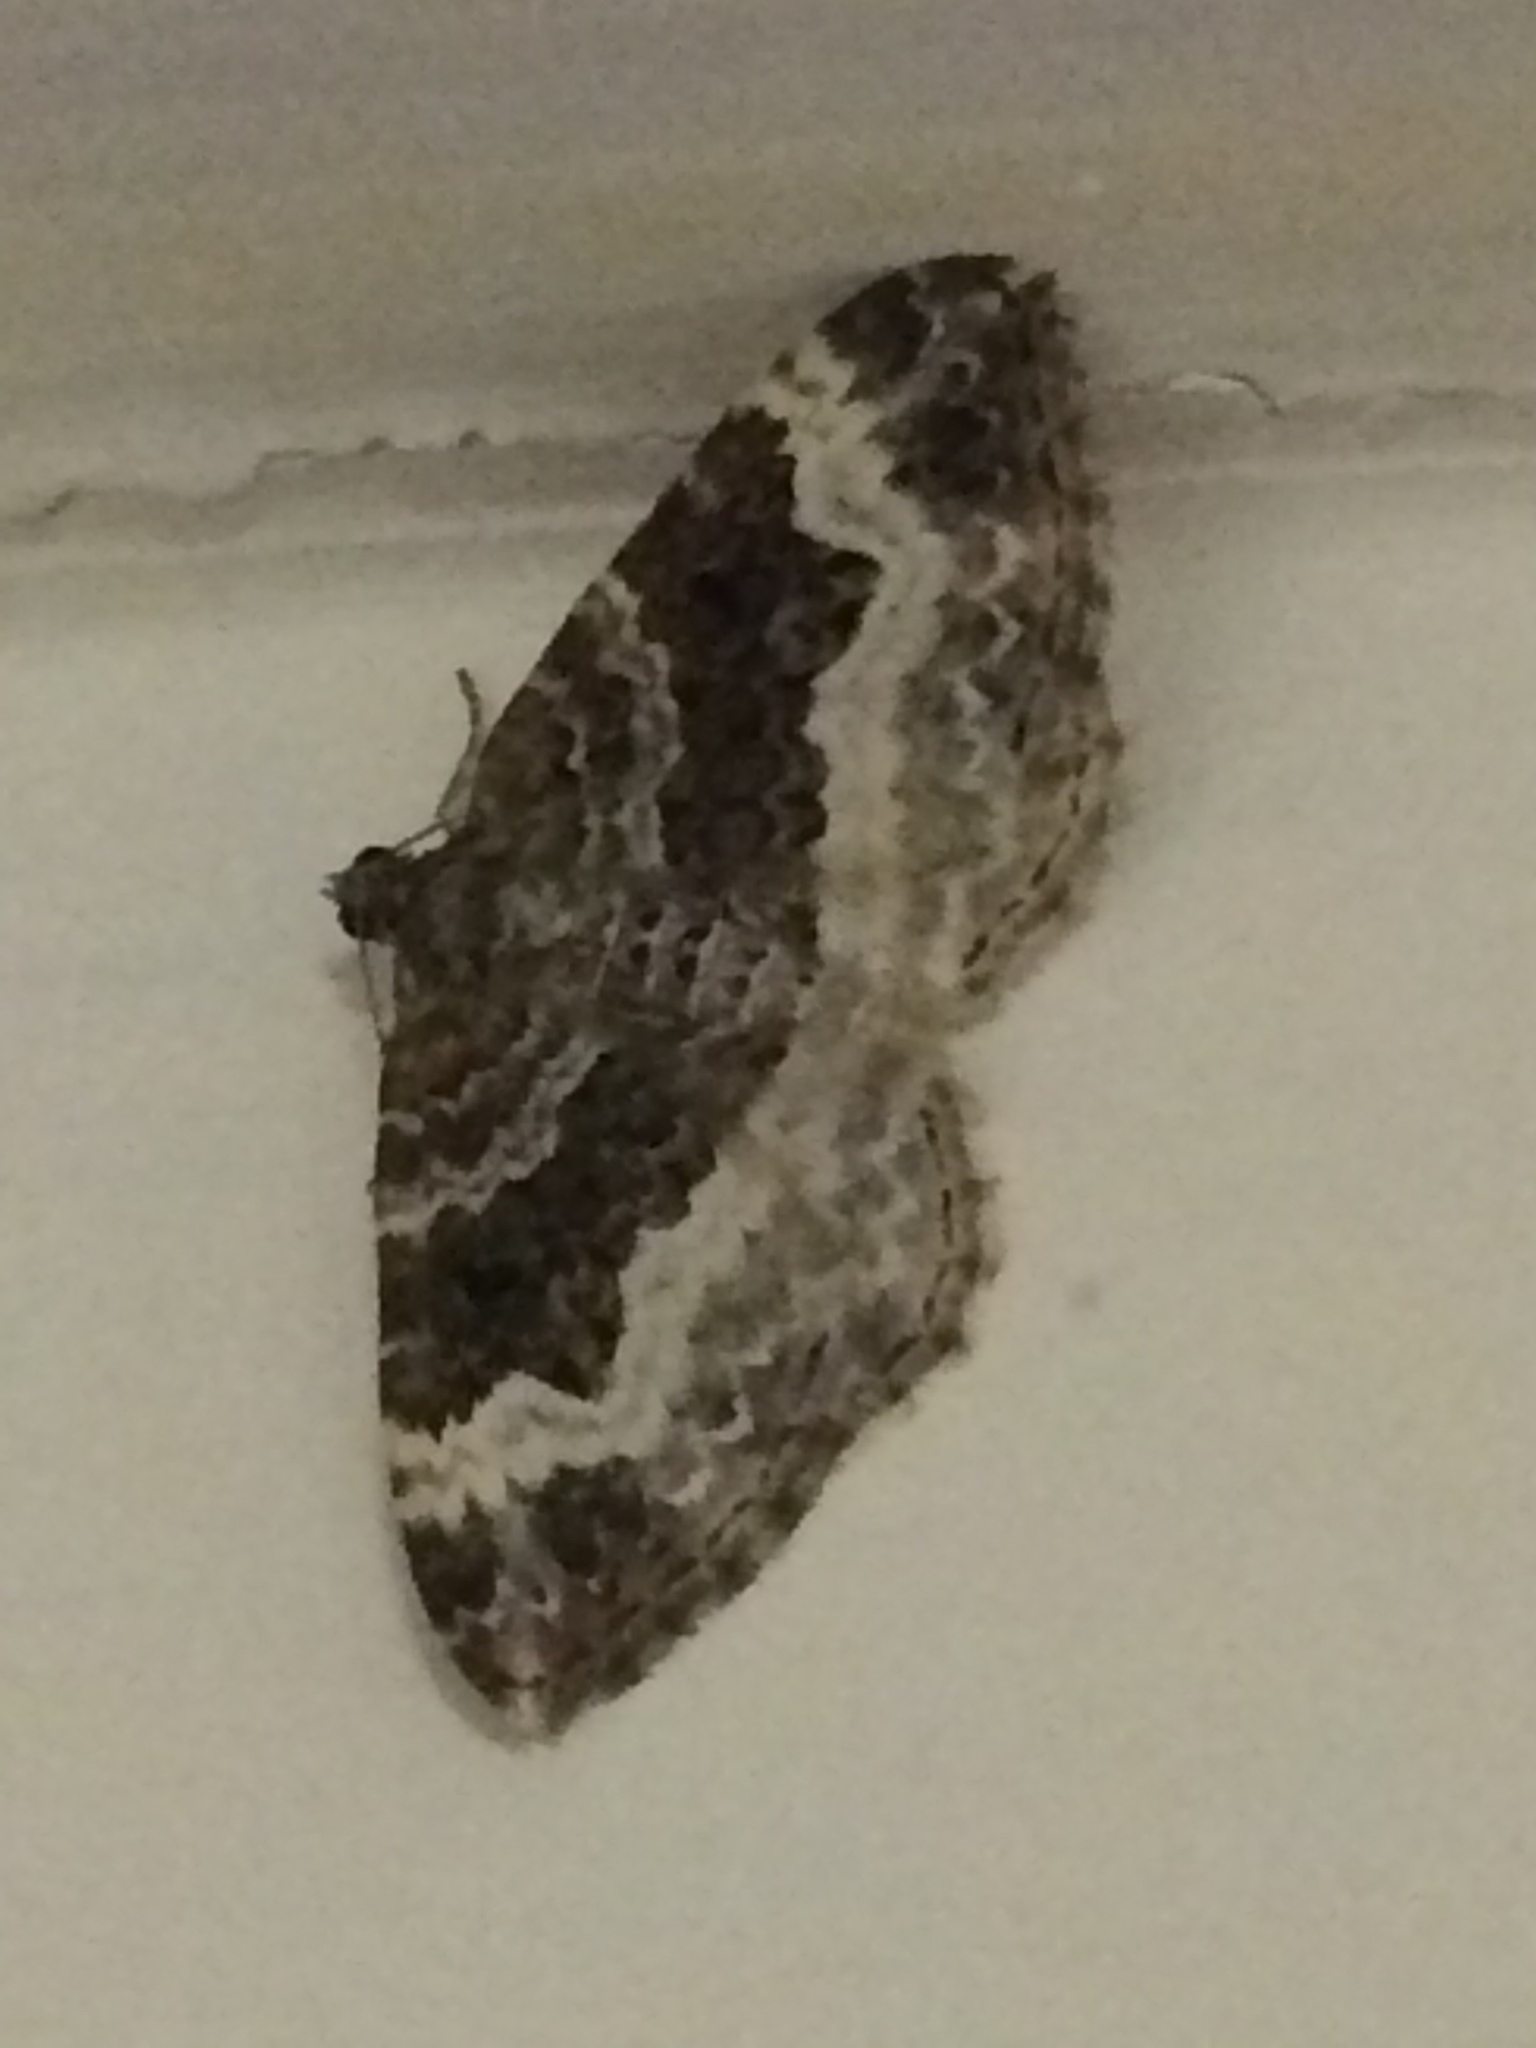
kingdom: Animalia
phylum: Arthropoda
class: Insecta
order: Lepidoptera
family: Geometridae
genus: Epirrhoe
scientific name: Epirrhoe alternata
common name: Common carpet
